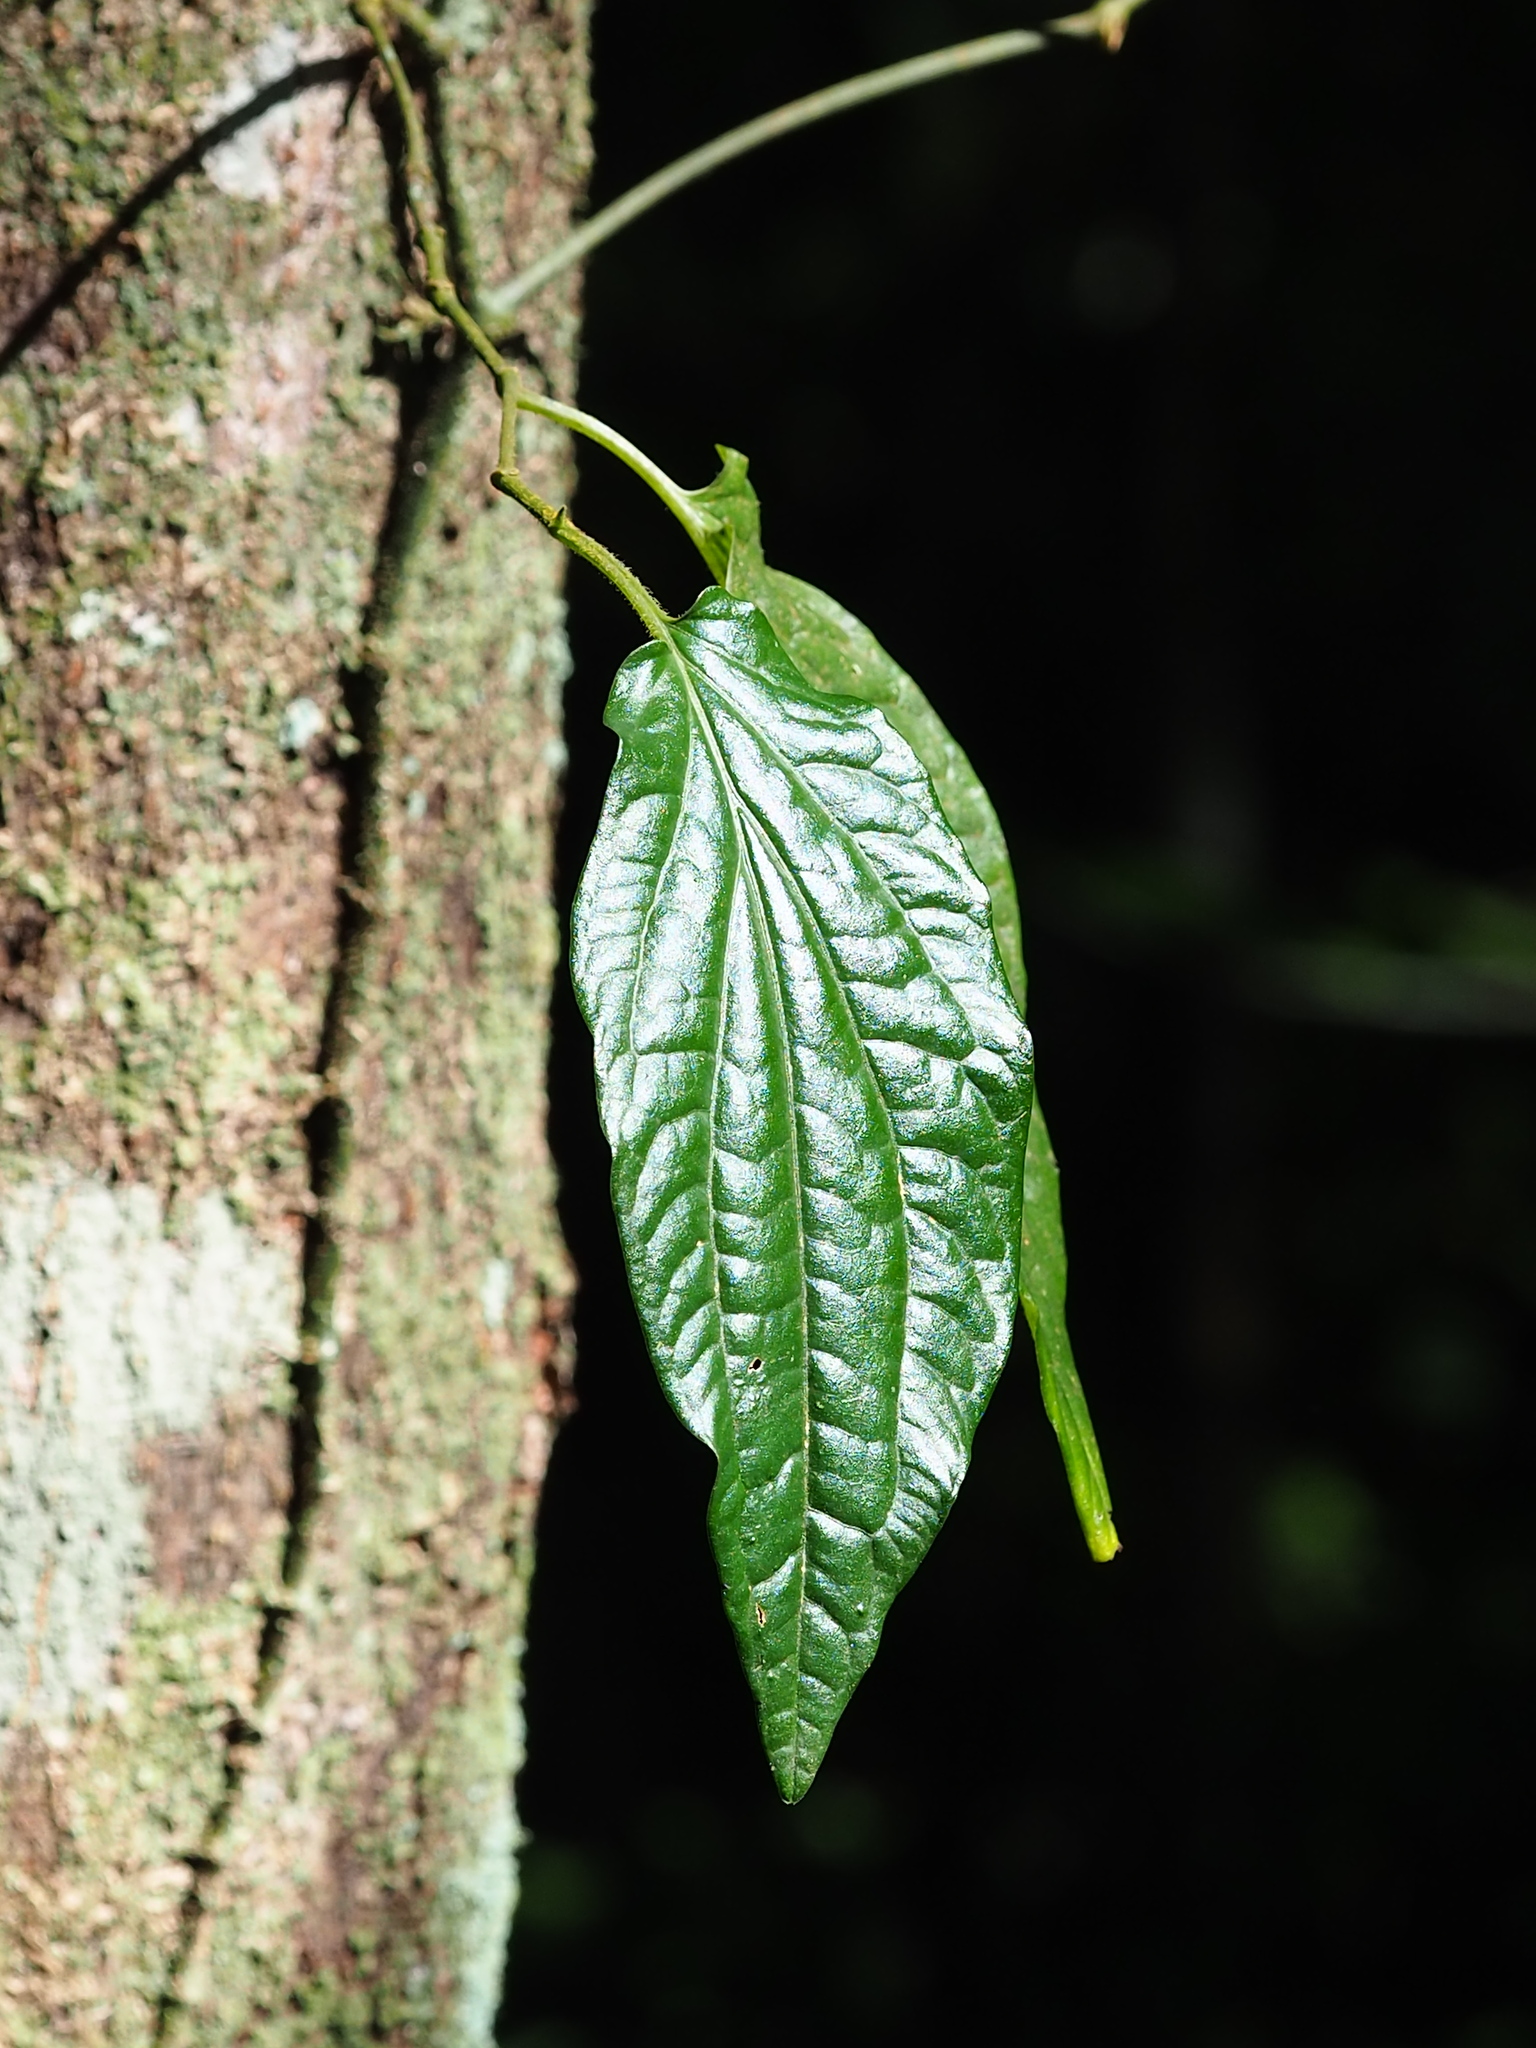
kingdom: Plantae
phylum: Tracheophyta
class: Magnoliopsida
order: Piperales
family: Piperaceae
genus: Piper
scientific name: Piper sintenense
